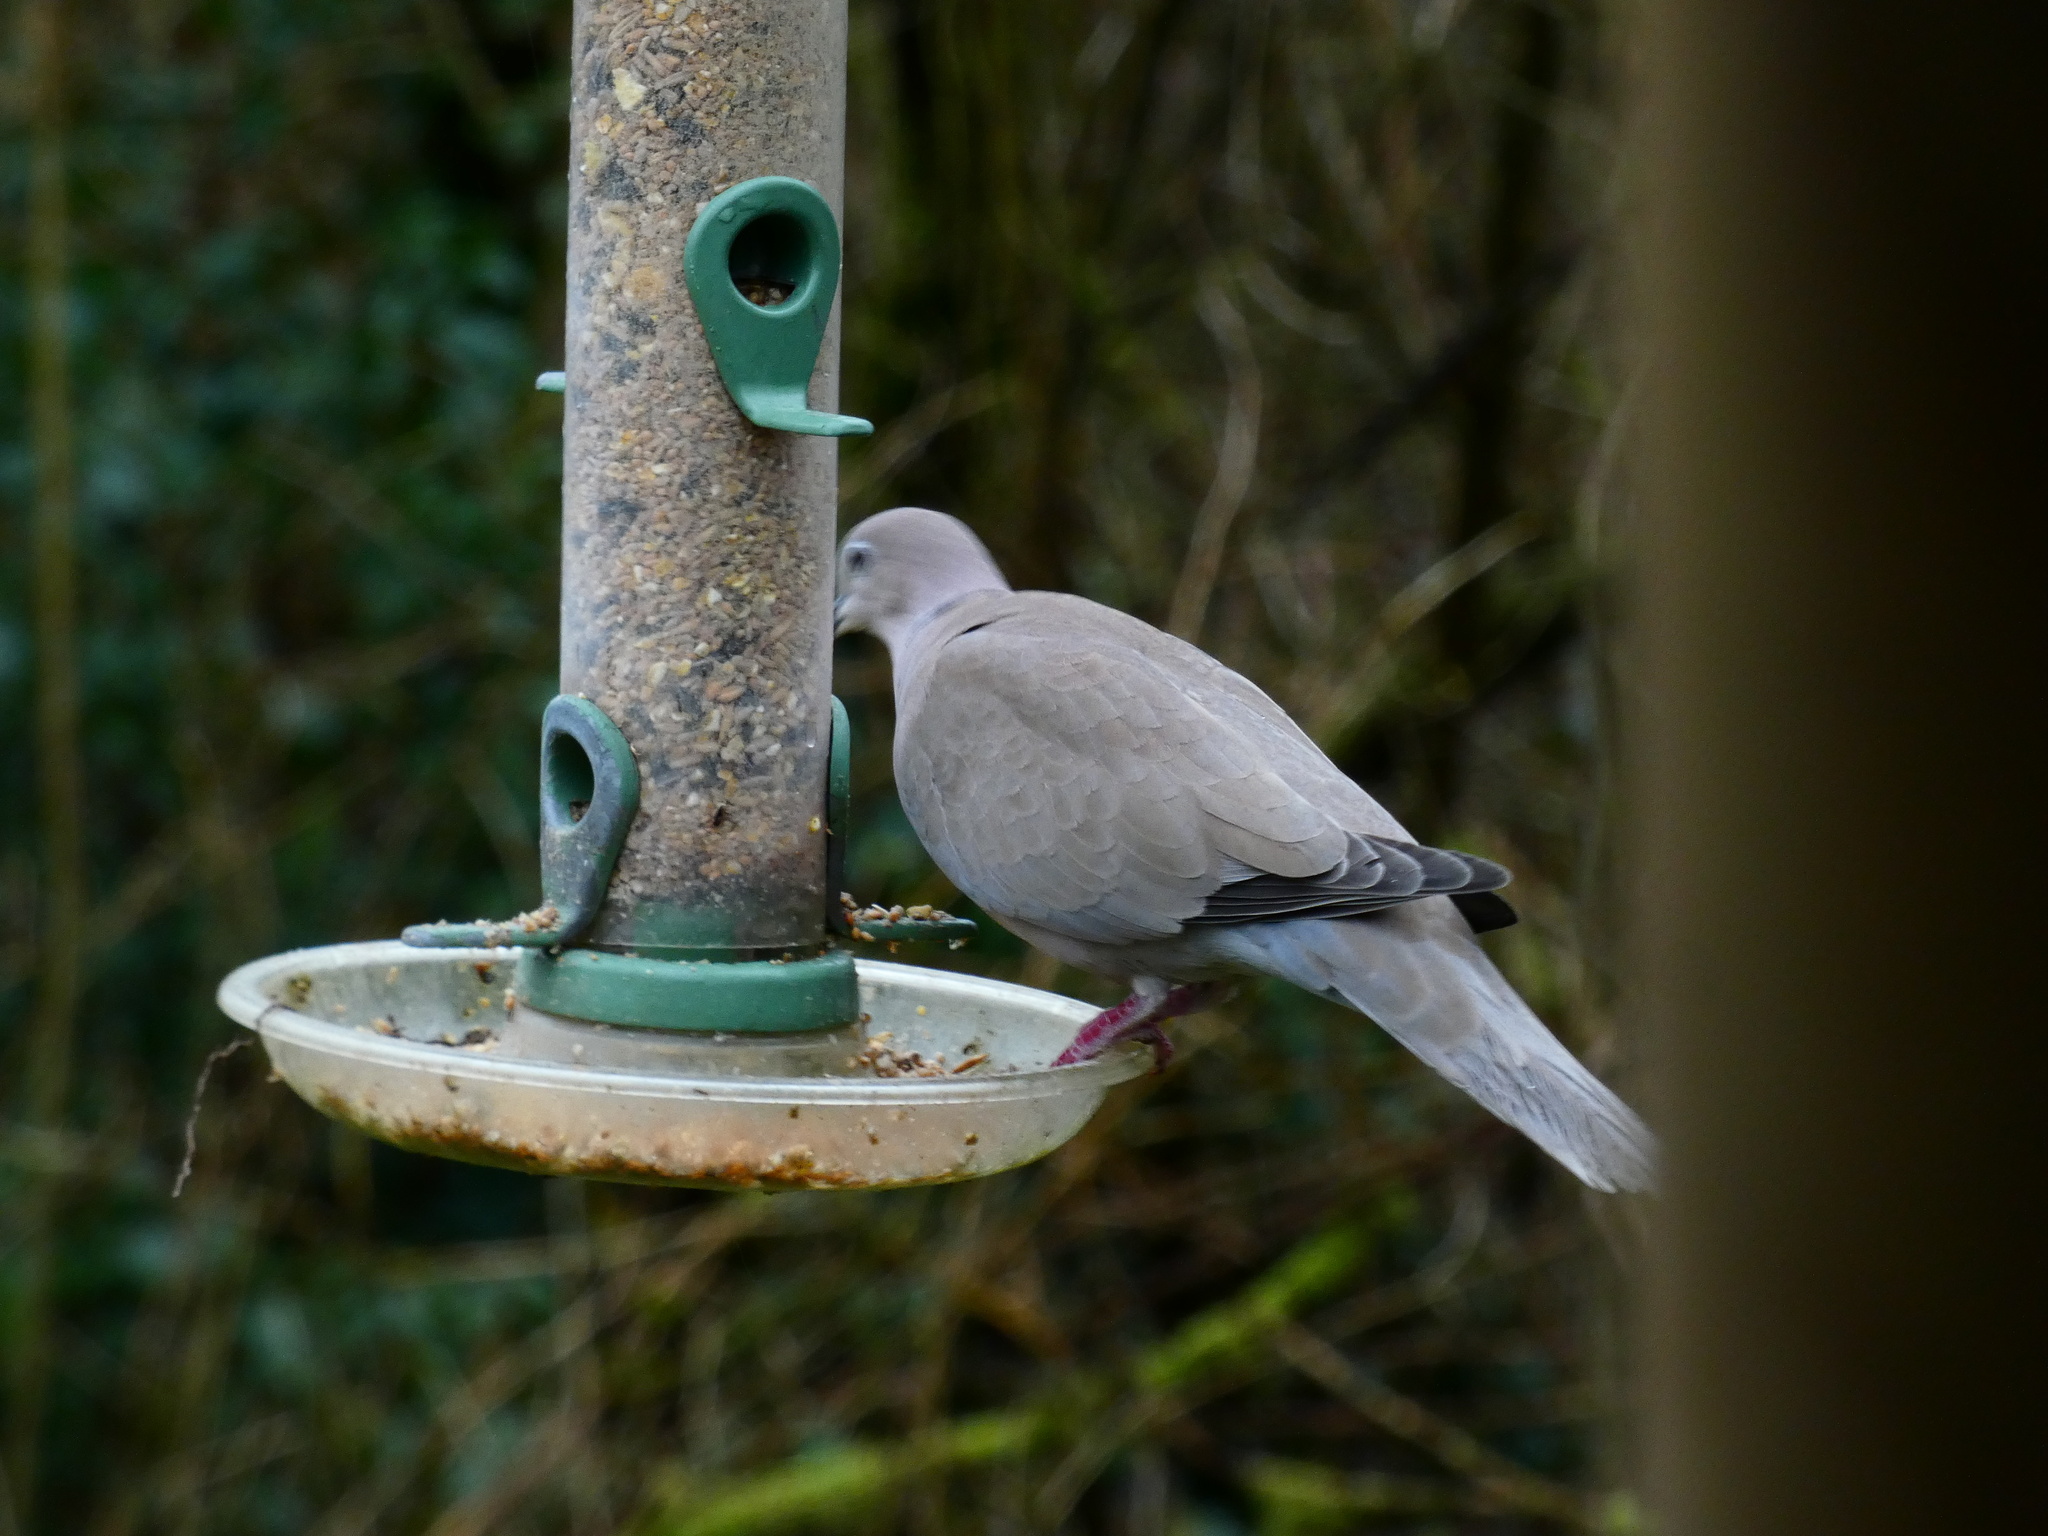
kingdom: Animalia
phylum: Chordata
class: Aves
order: Columbiformes
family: Columbidae
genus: Streptopelia
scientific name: Streptopelia decaocto
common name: Eurasian collared dove
